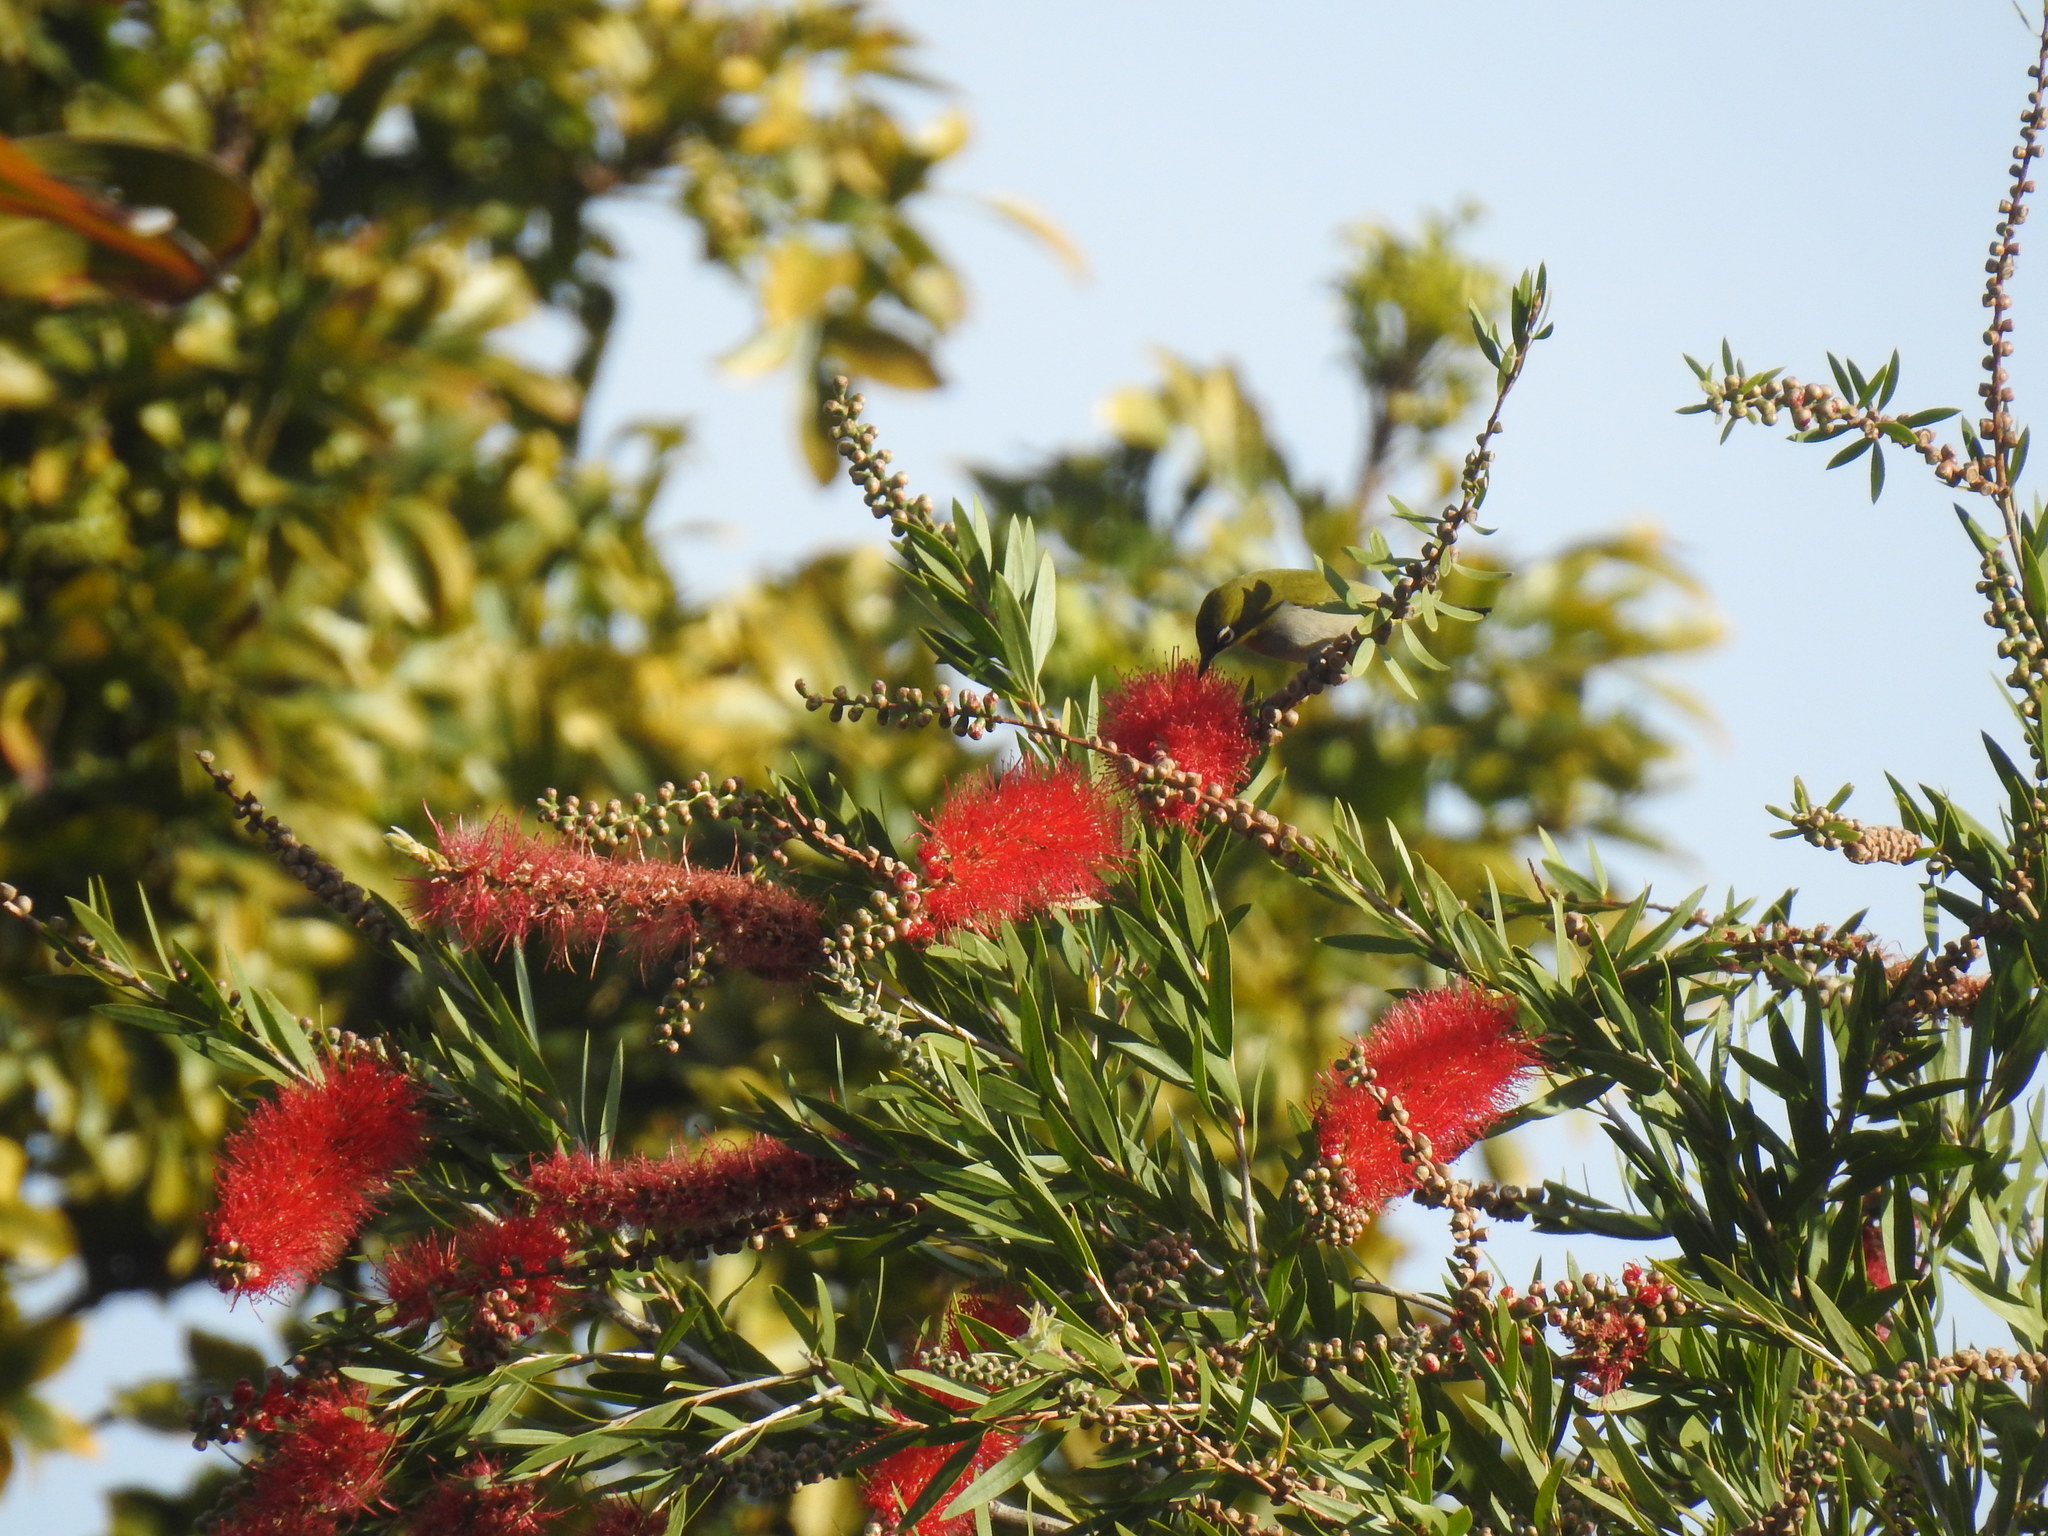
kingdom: Animalia
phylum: Chordata
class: Aves
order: Passeriformes
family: Zosteropidae
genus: Zosterops
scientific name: Zosterops virens
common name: Cape white-eye
